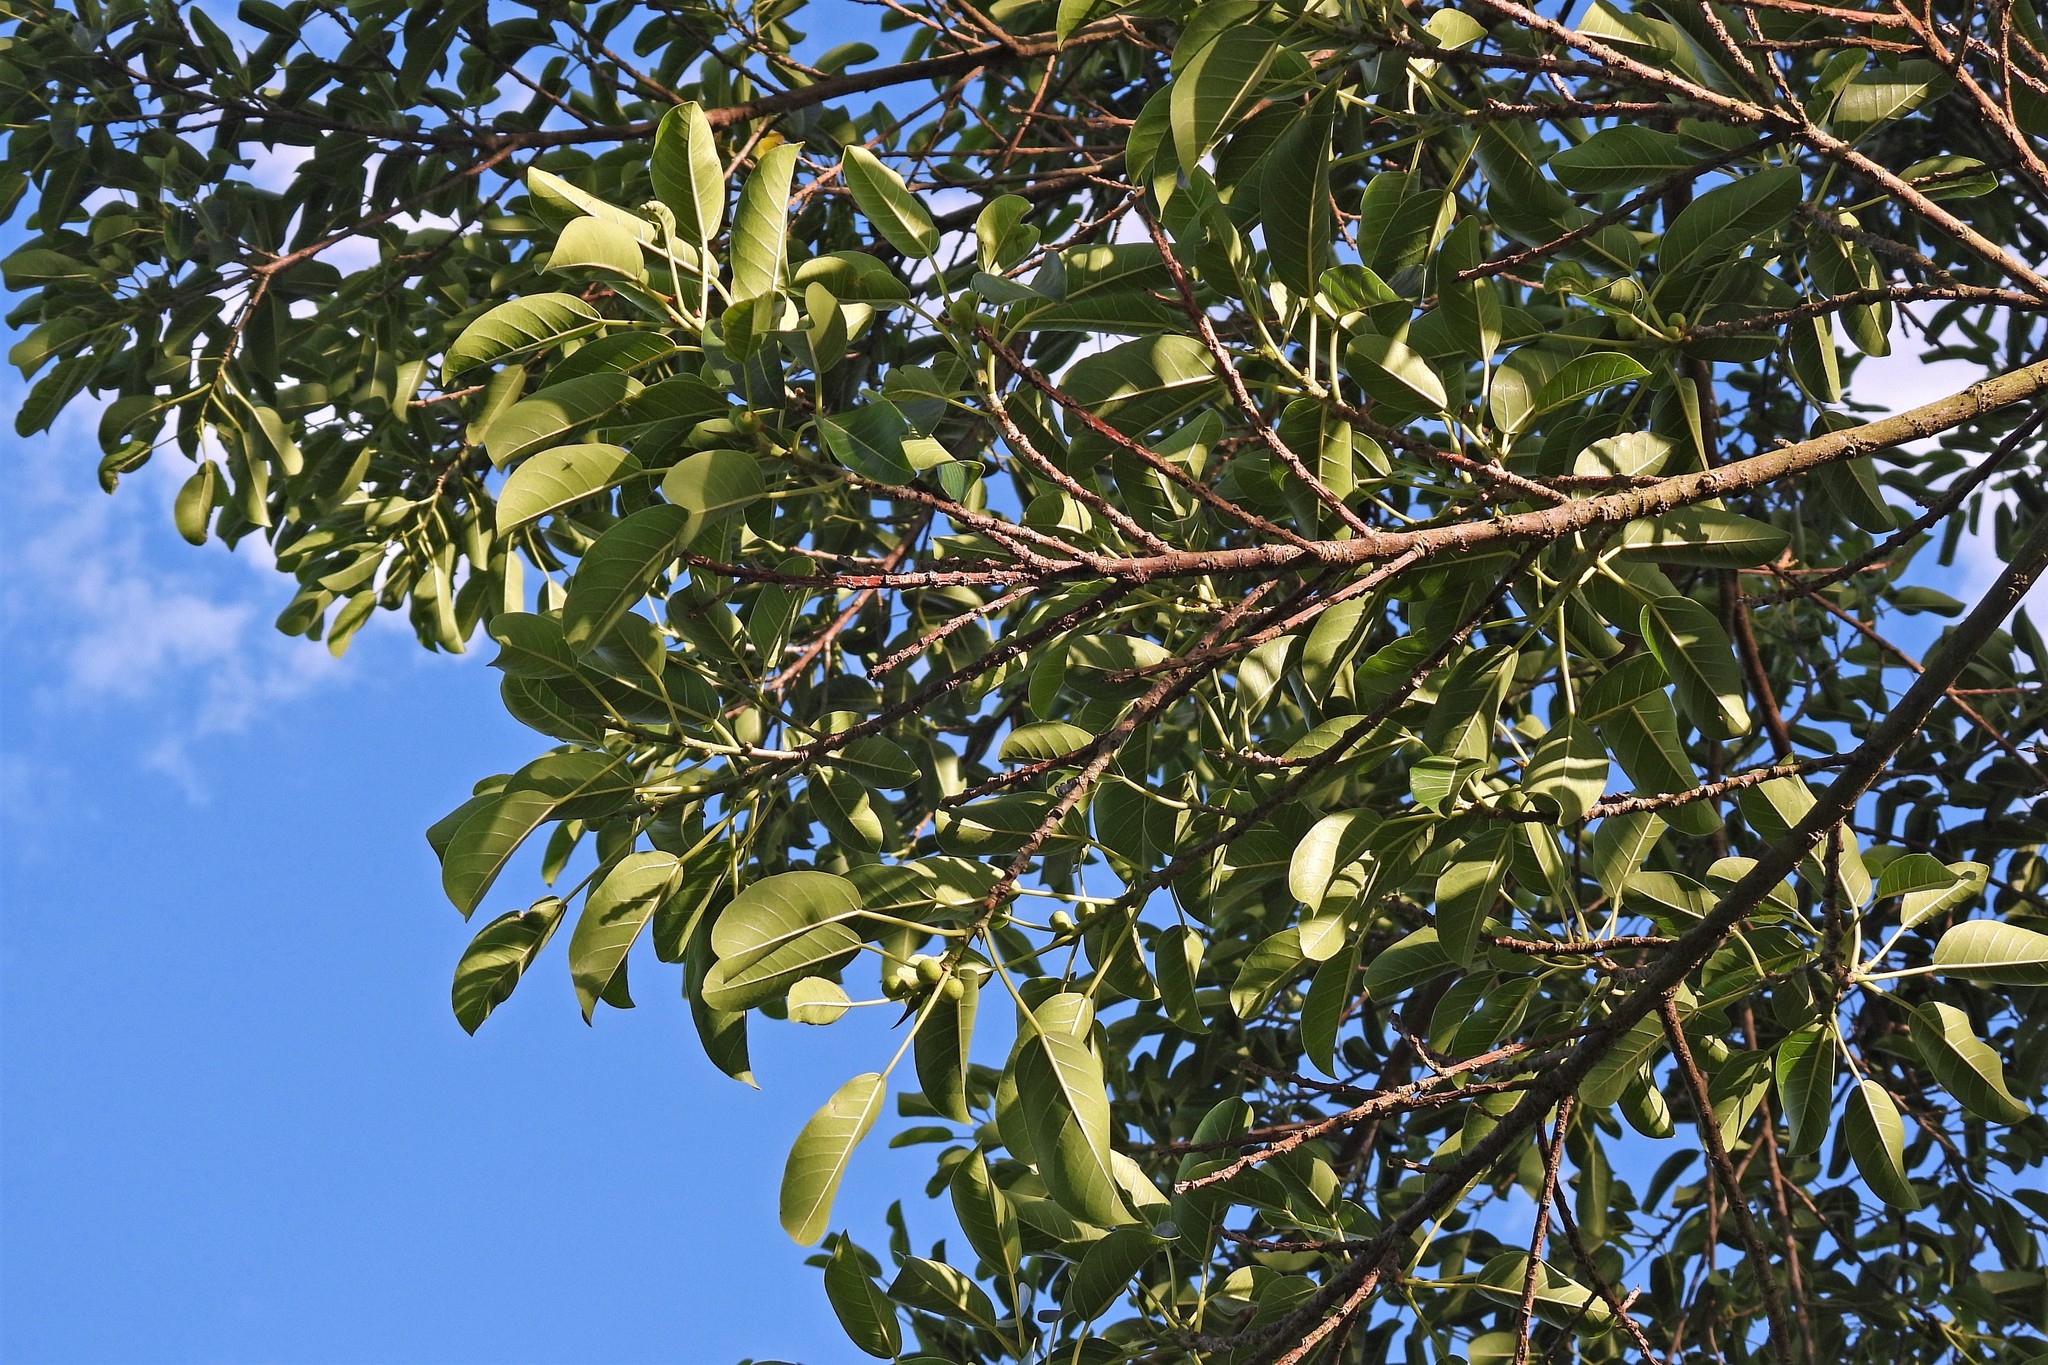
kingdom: Plantae
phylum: Tracheophyta
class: Magnoliopsida
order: Rosales
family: Moraceae
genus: Ficus
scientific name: Ficus luschnathiana
